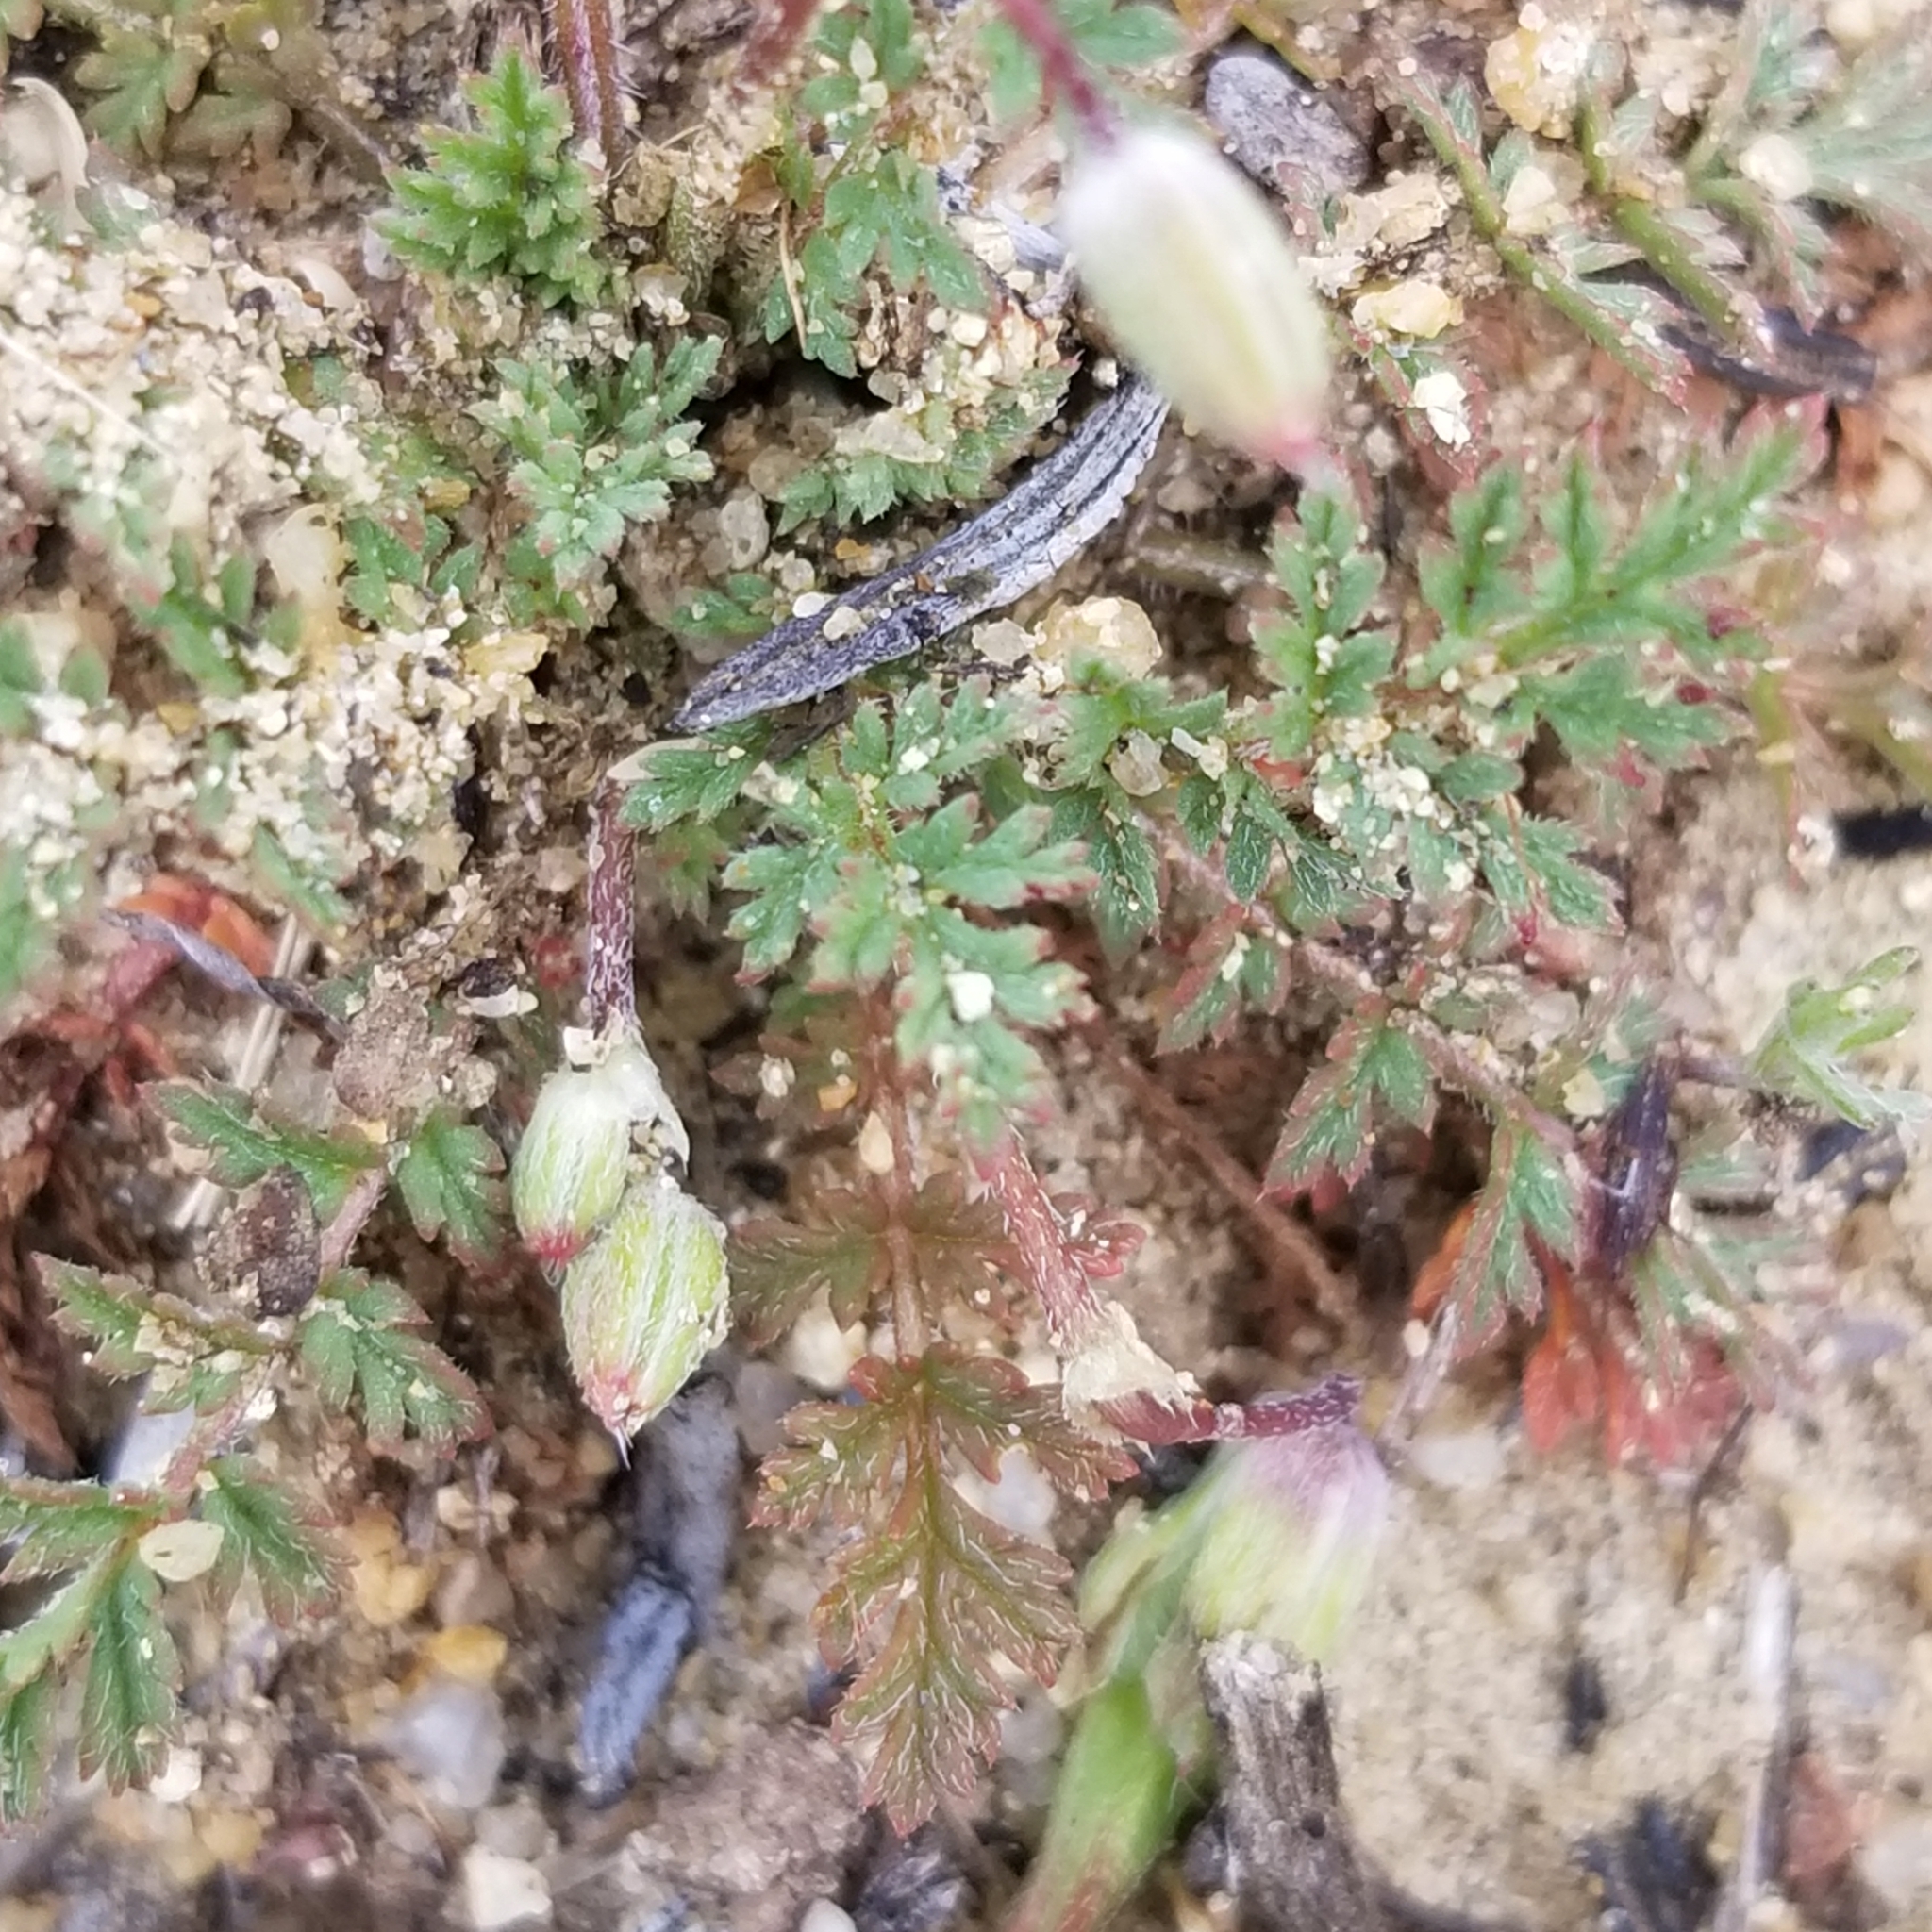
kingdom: Plantae
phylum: Tracheophyta
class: Magnoliopsida
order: Geraniales
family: Geraniaceae
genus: Erodium
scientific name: Erodium cicutarium
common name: Common stork's-bill
